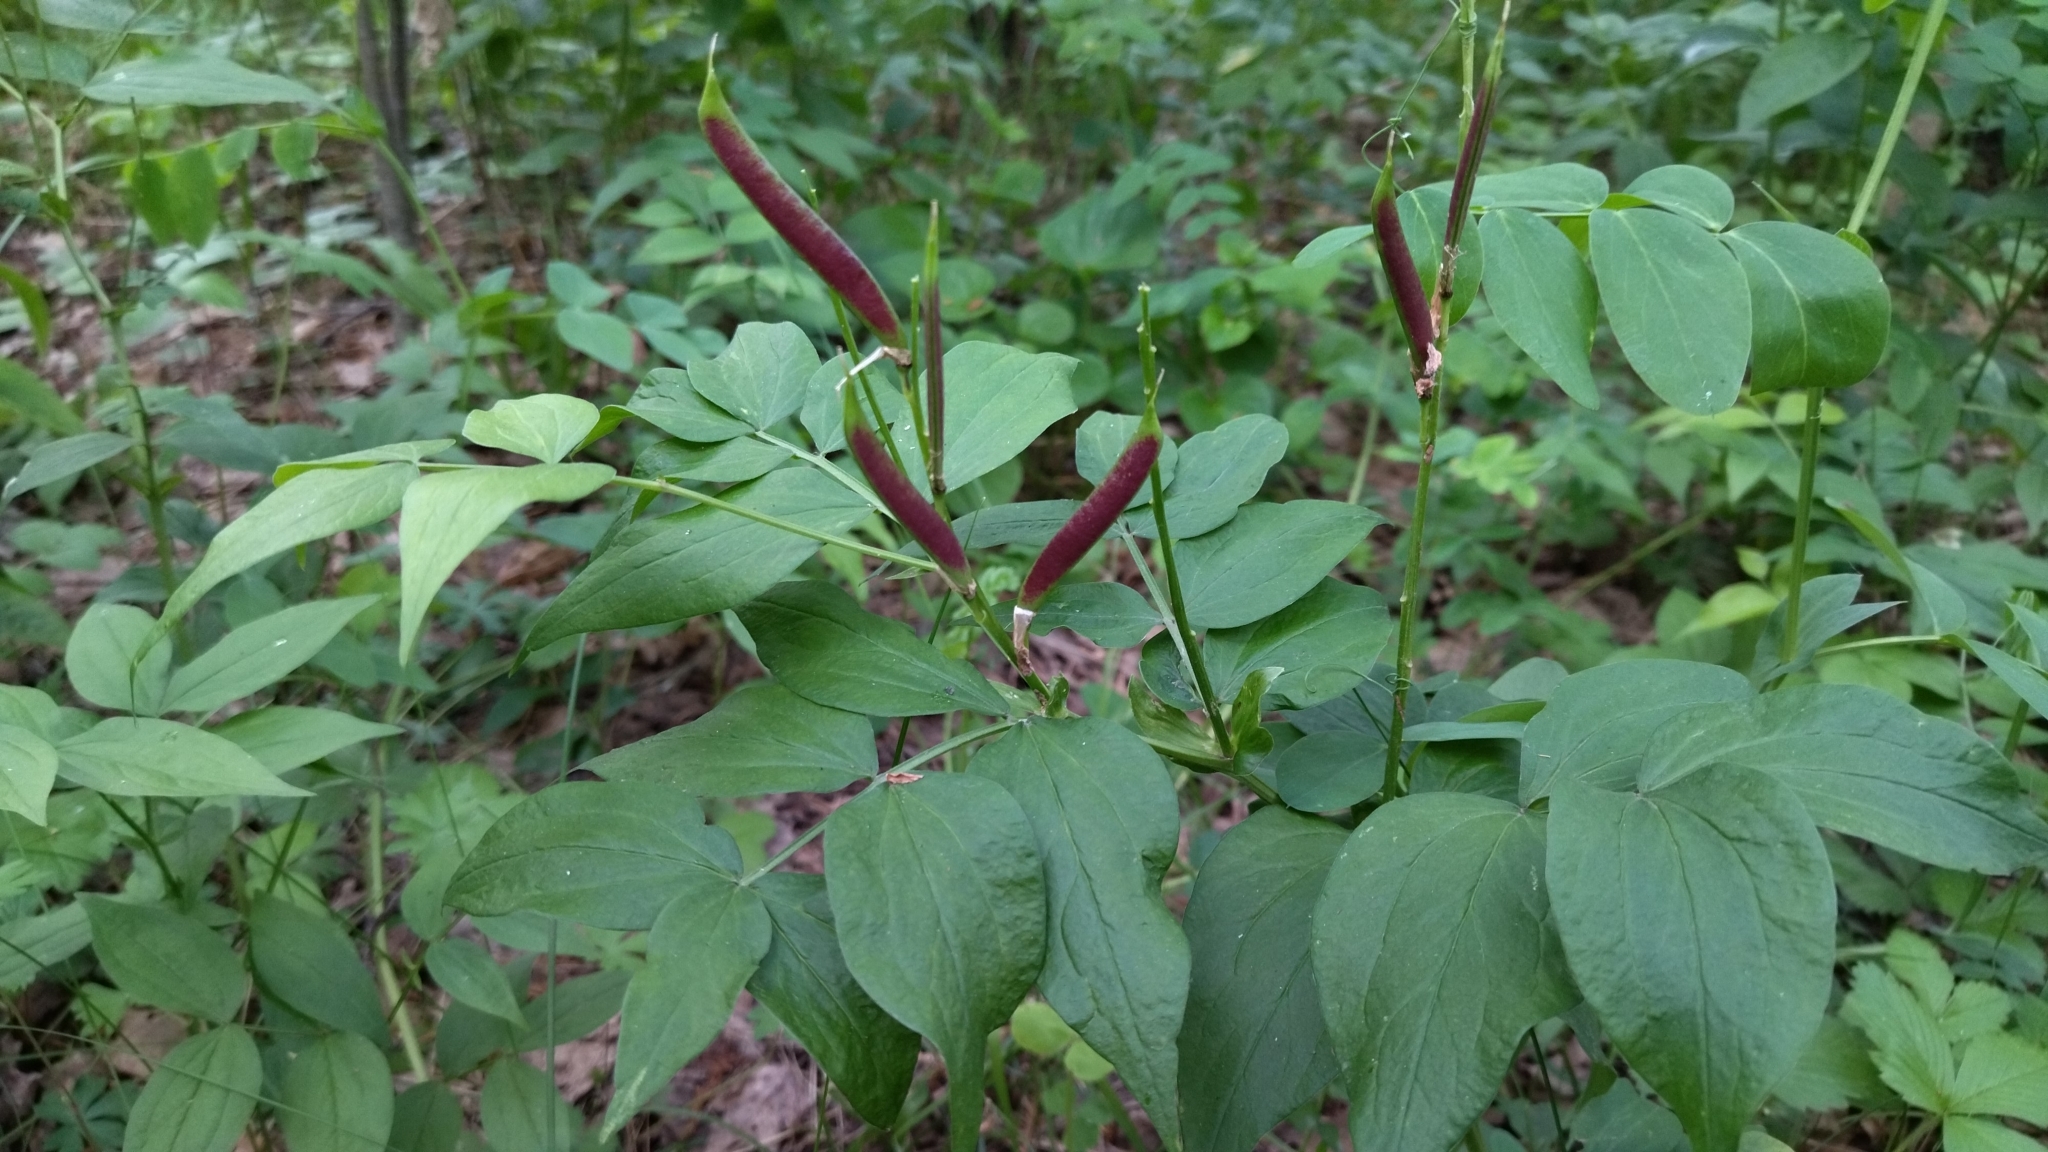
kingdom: Plantae
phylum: Tracheophyta
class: Magnoliopsida
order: Fabales
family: Fabaceae
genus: Lathyrus
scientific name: Lathyrus vernus
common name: Spring pea
